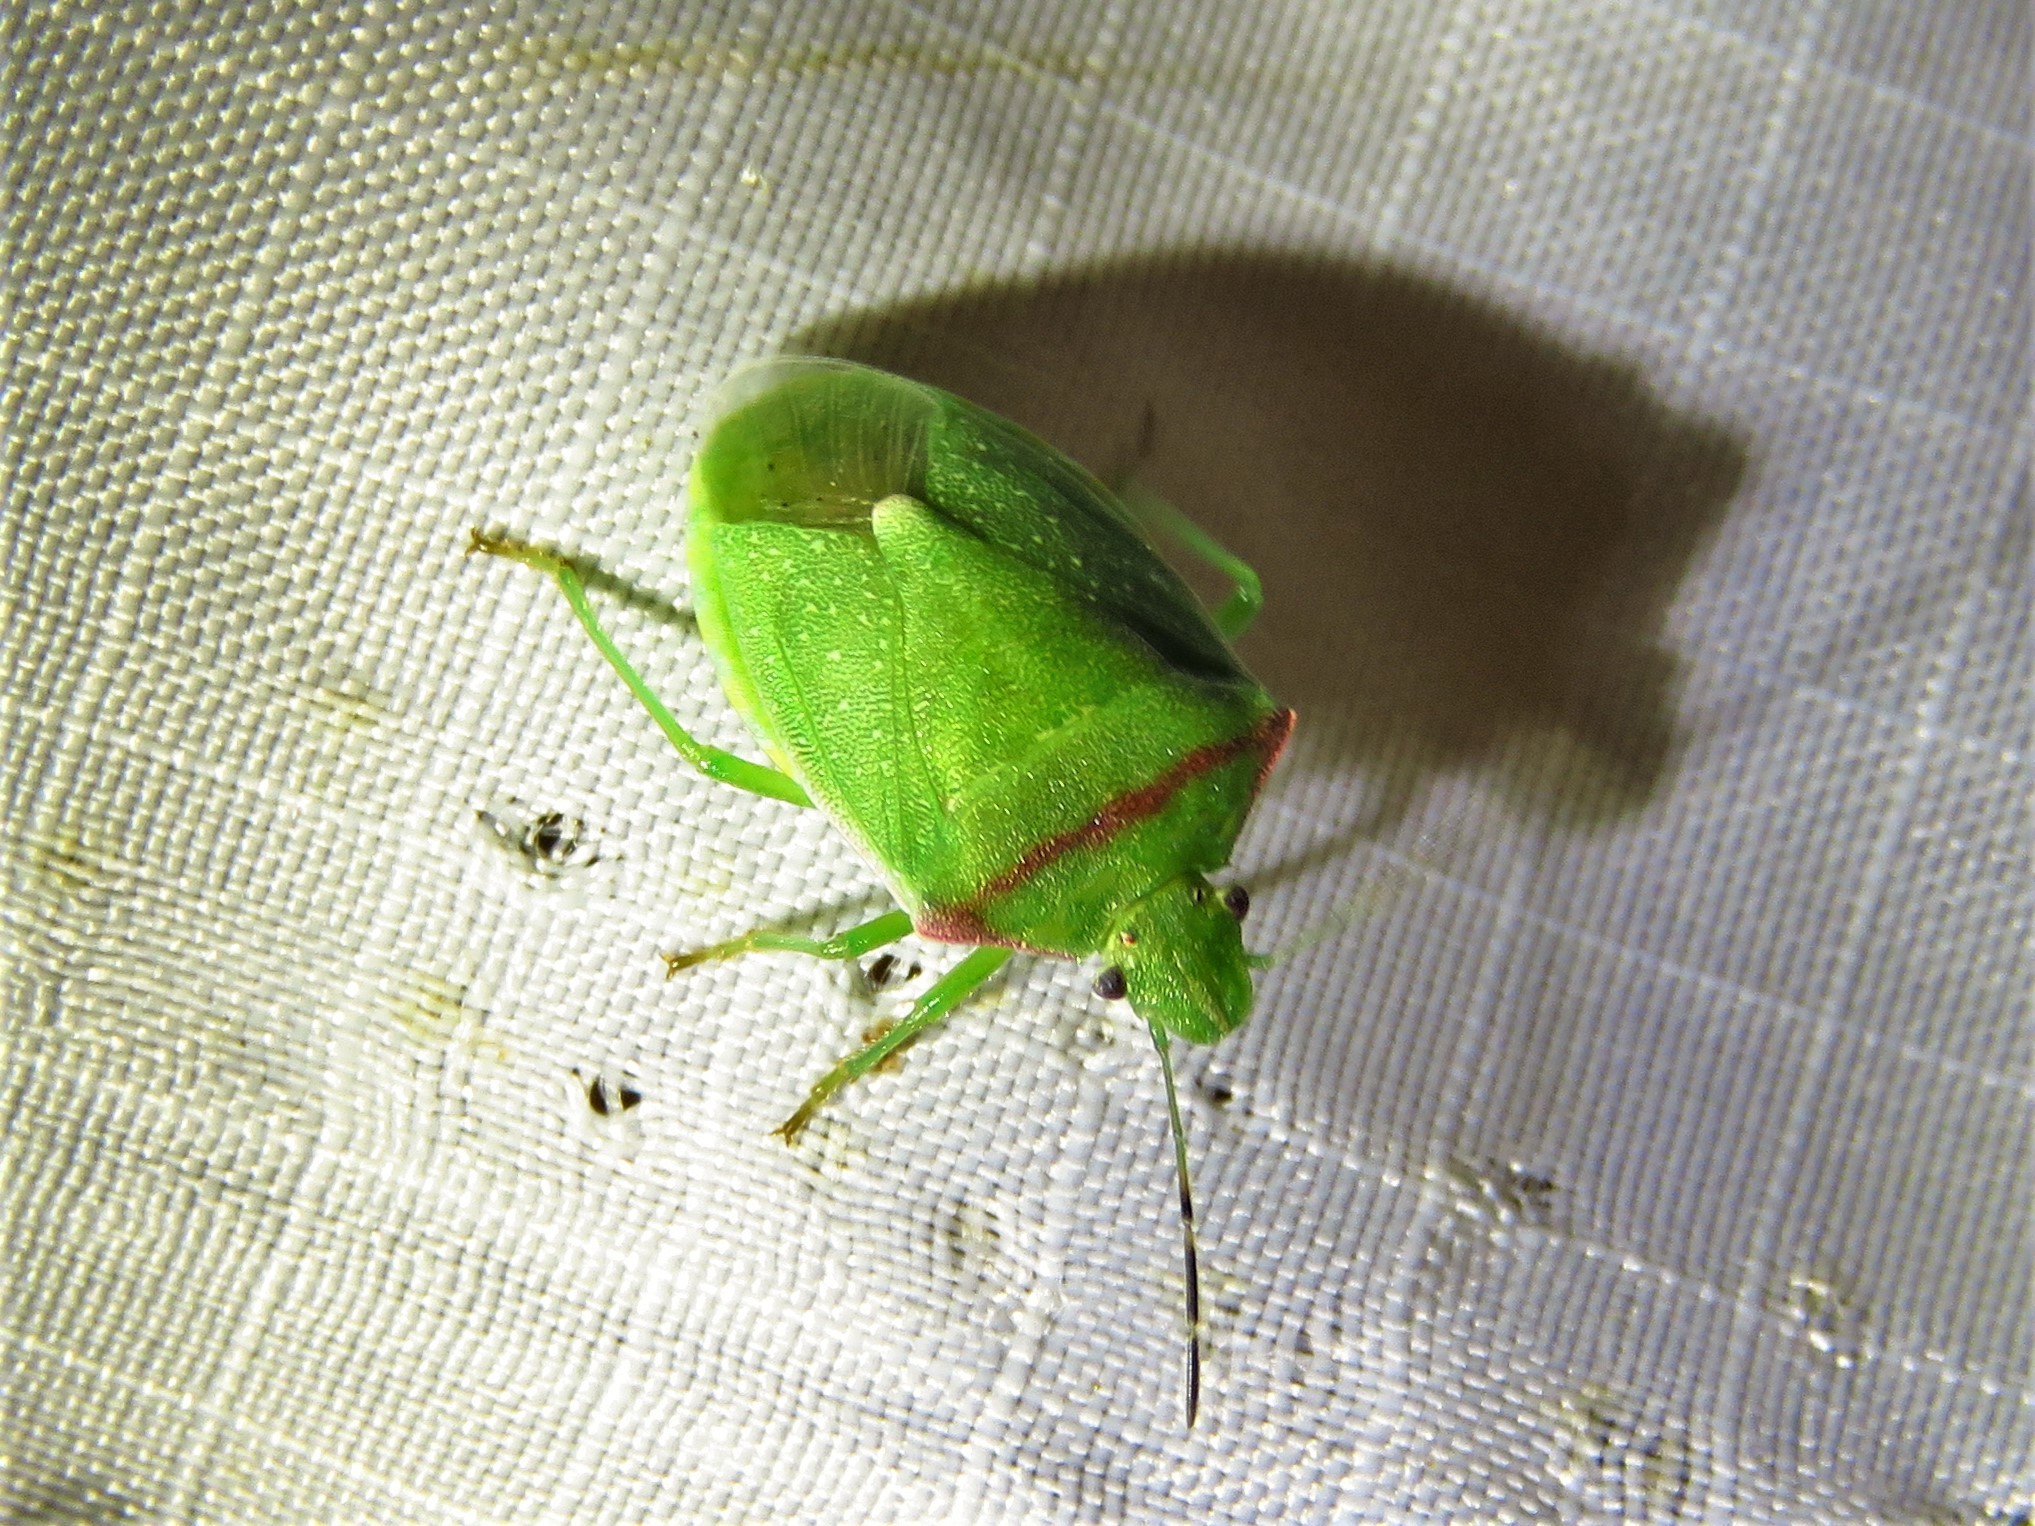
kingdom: Animalia
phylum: Arthropoda
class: Insecta
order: Hemiptera
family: Pentatomidae
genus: Thyanta
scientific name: Thyanta custator
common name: Stink bug
